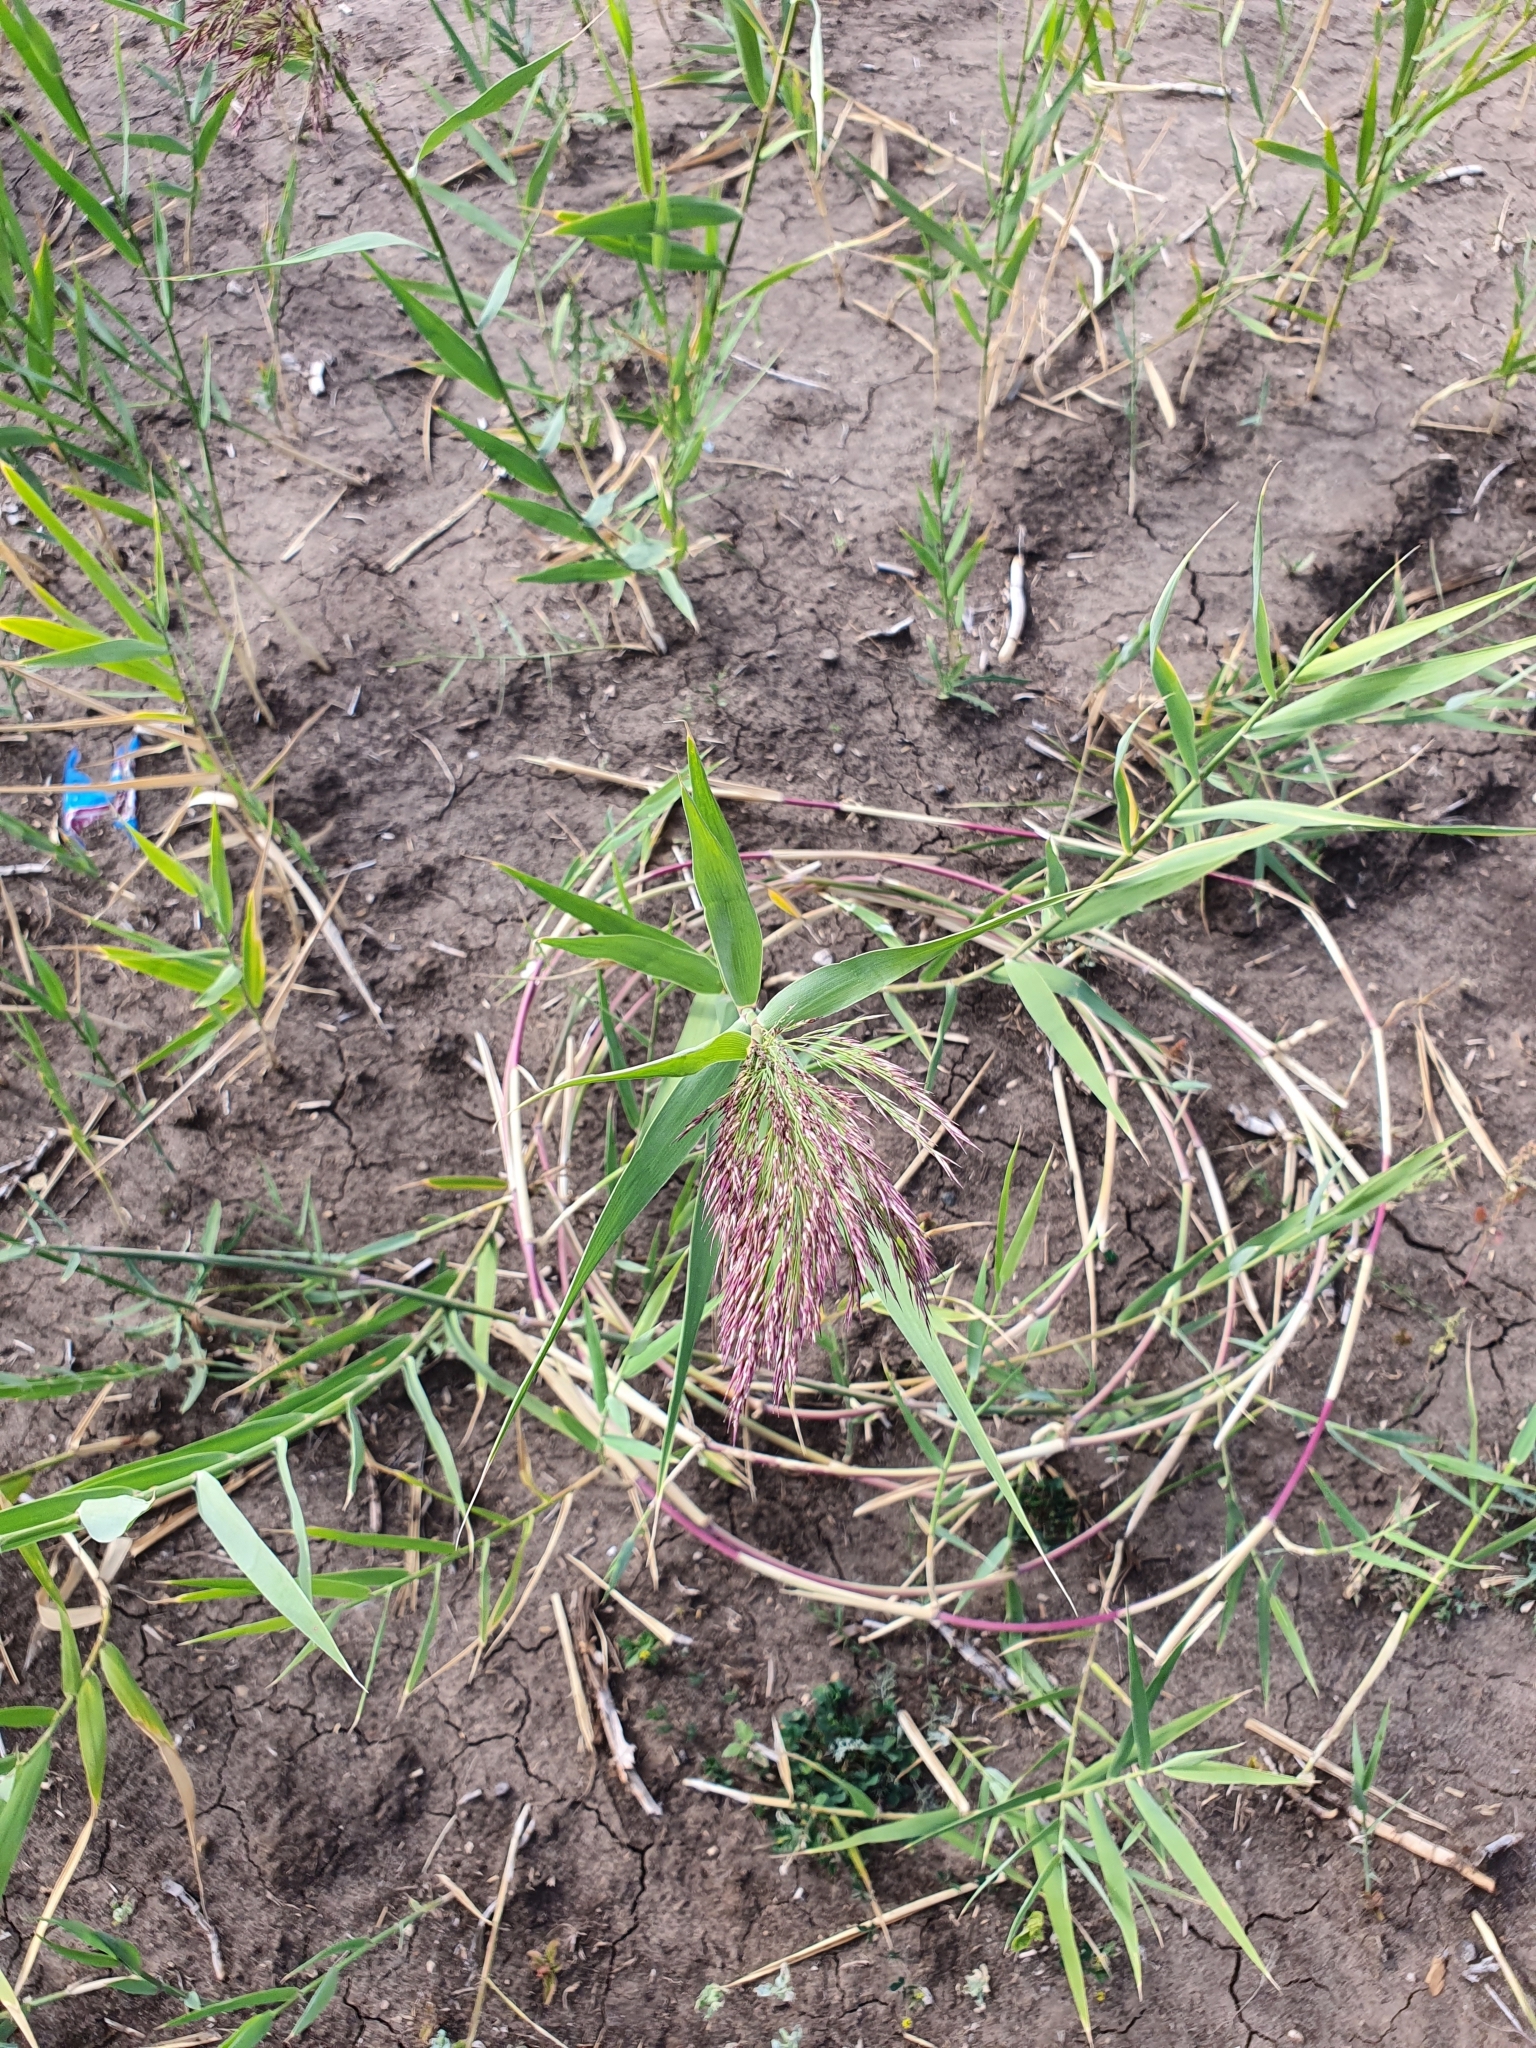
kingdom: Plantae
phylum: Tracheophyta
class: Liliopsida
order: Poales
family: Poaceae
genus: Phragmites
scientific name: Phragmites australis
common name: Common reed
